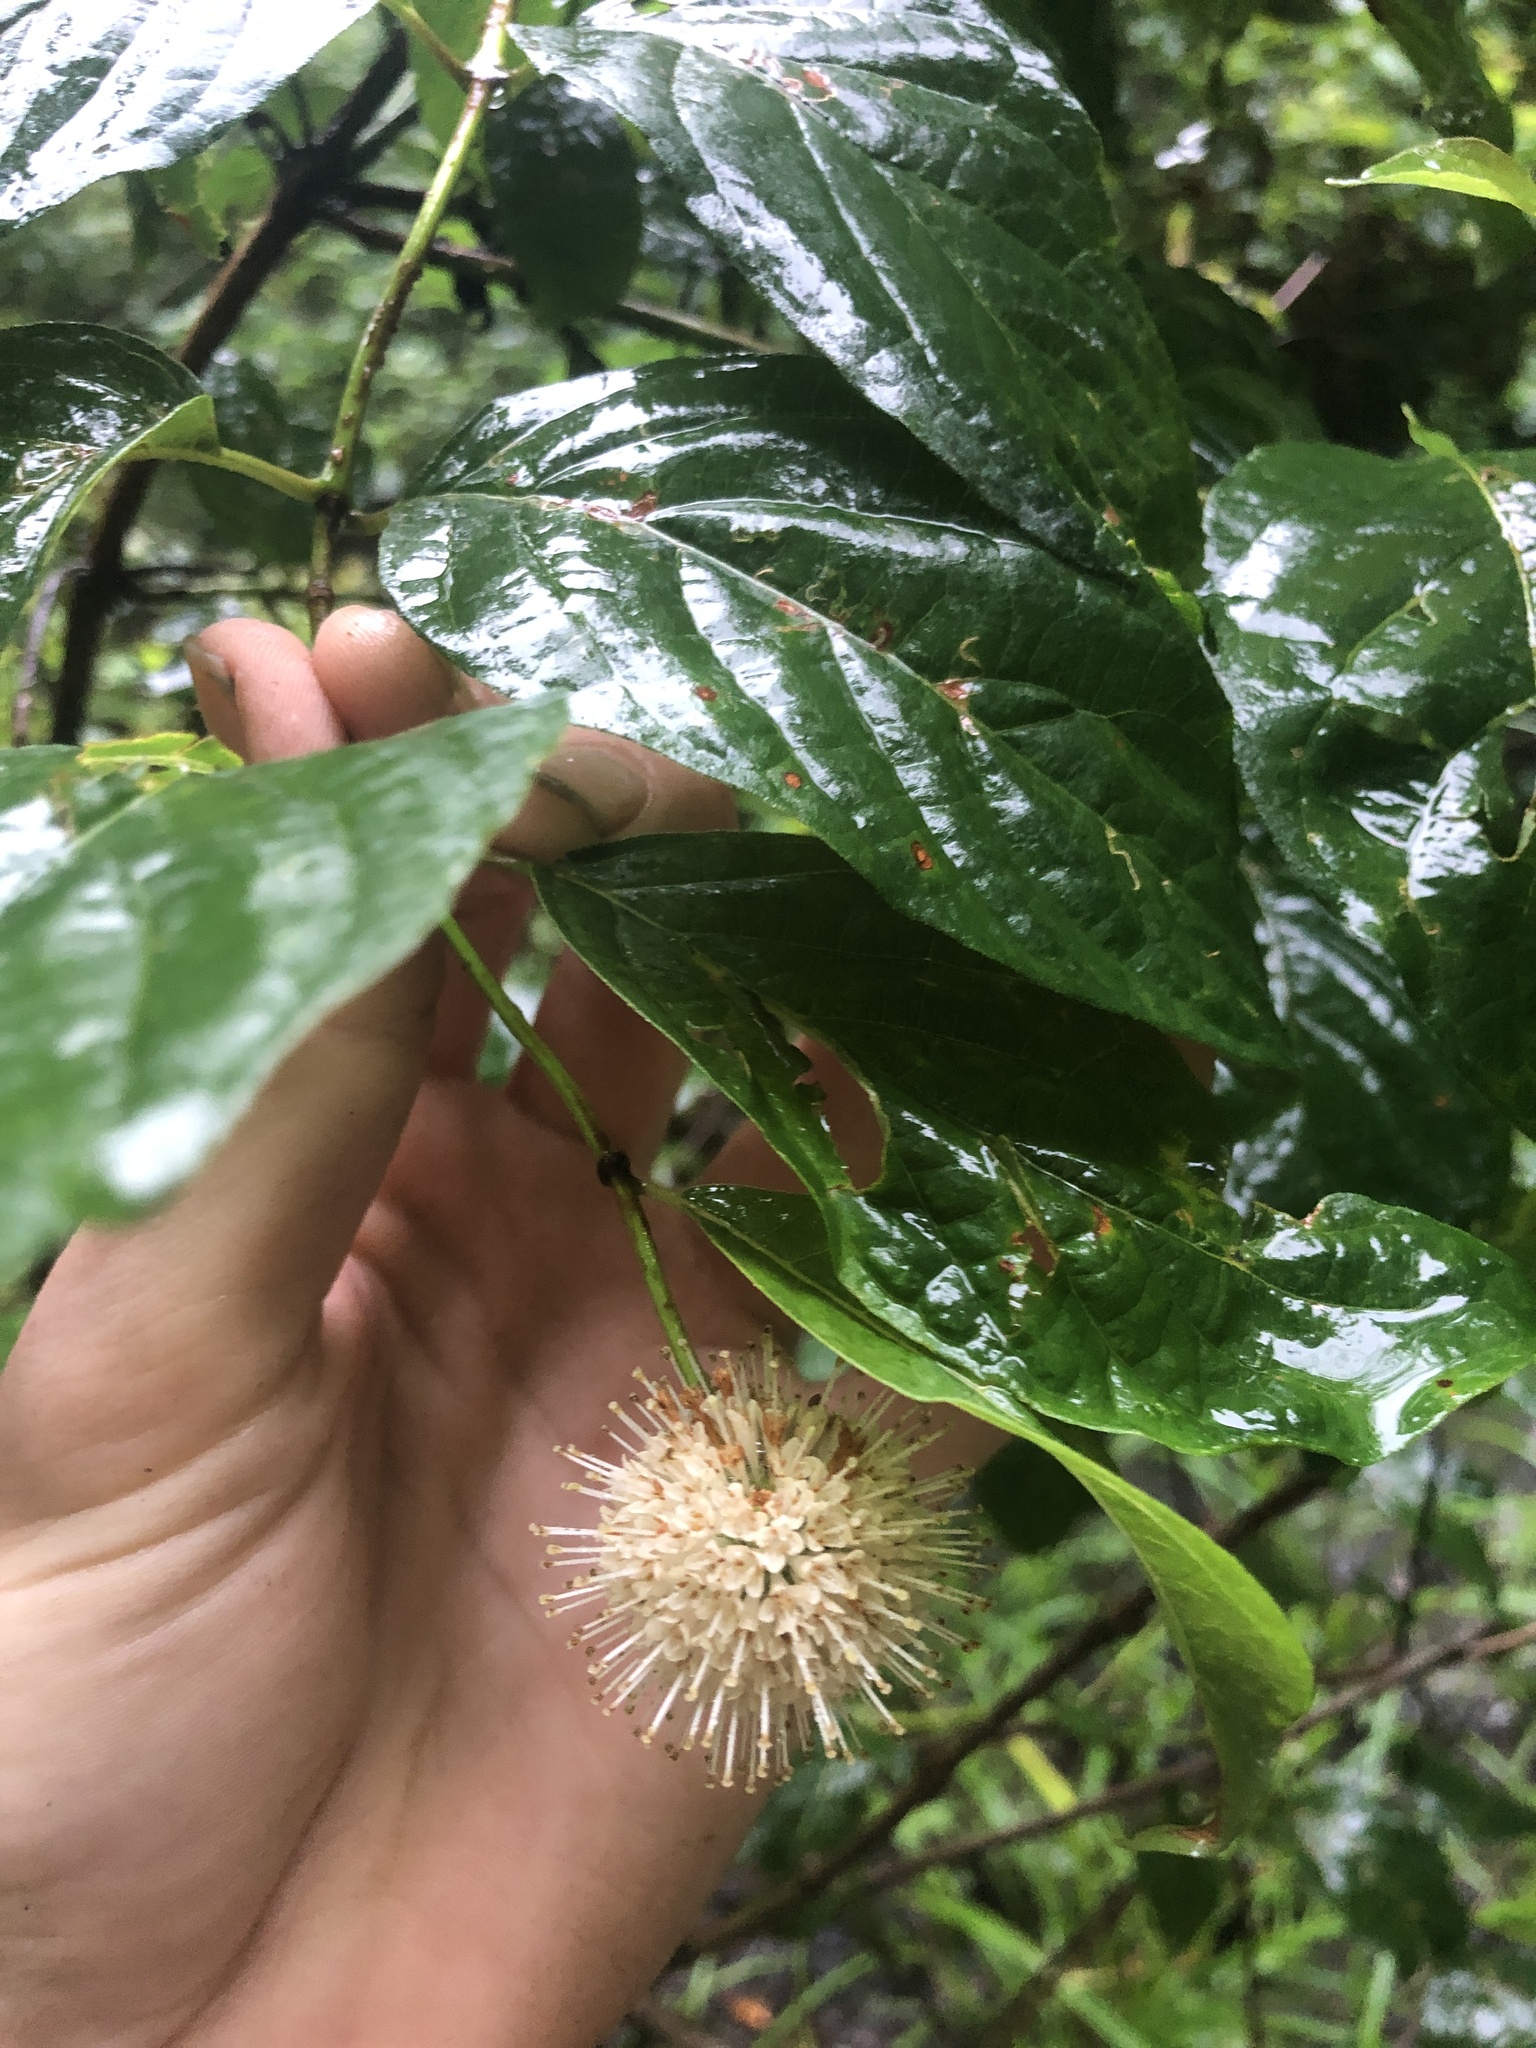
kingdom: Plantae
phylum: Tracheophyta
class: Magnoliopsida
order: Gentianales
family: Rubiaceae
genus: Cephalanthus
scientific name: Cephalanthus occidentalis
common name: Button-willow
